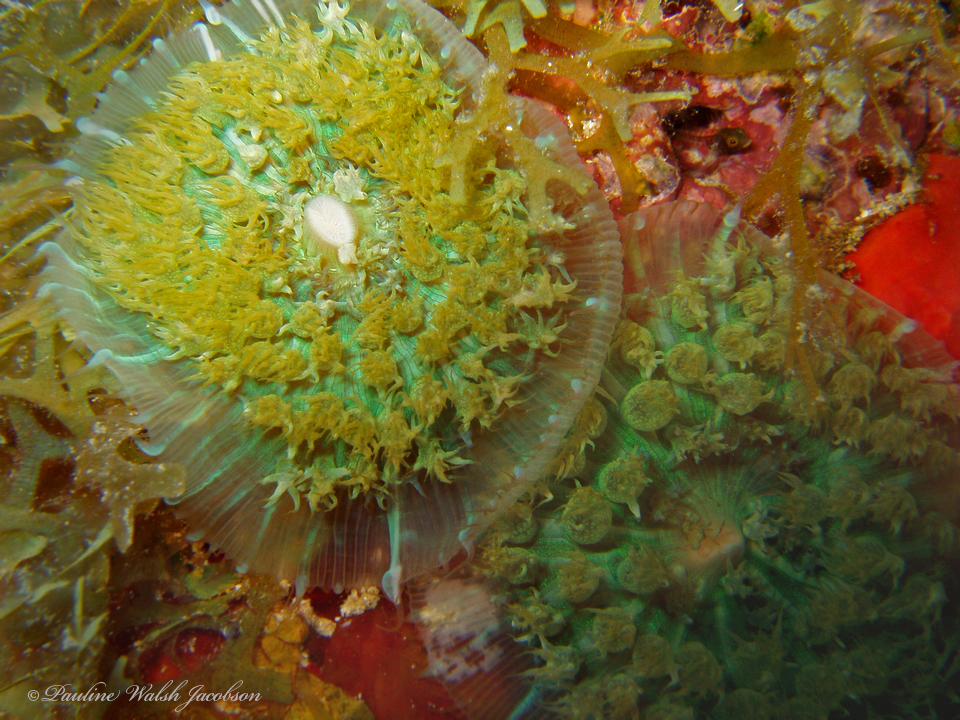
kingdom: Animalia
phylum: Cnidaria
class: Anthozoa
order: Corallimorpharia
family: Discosomidae
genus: Rhodactis
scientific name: Rhodactis osculifera
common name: Warty corallimorph
